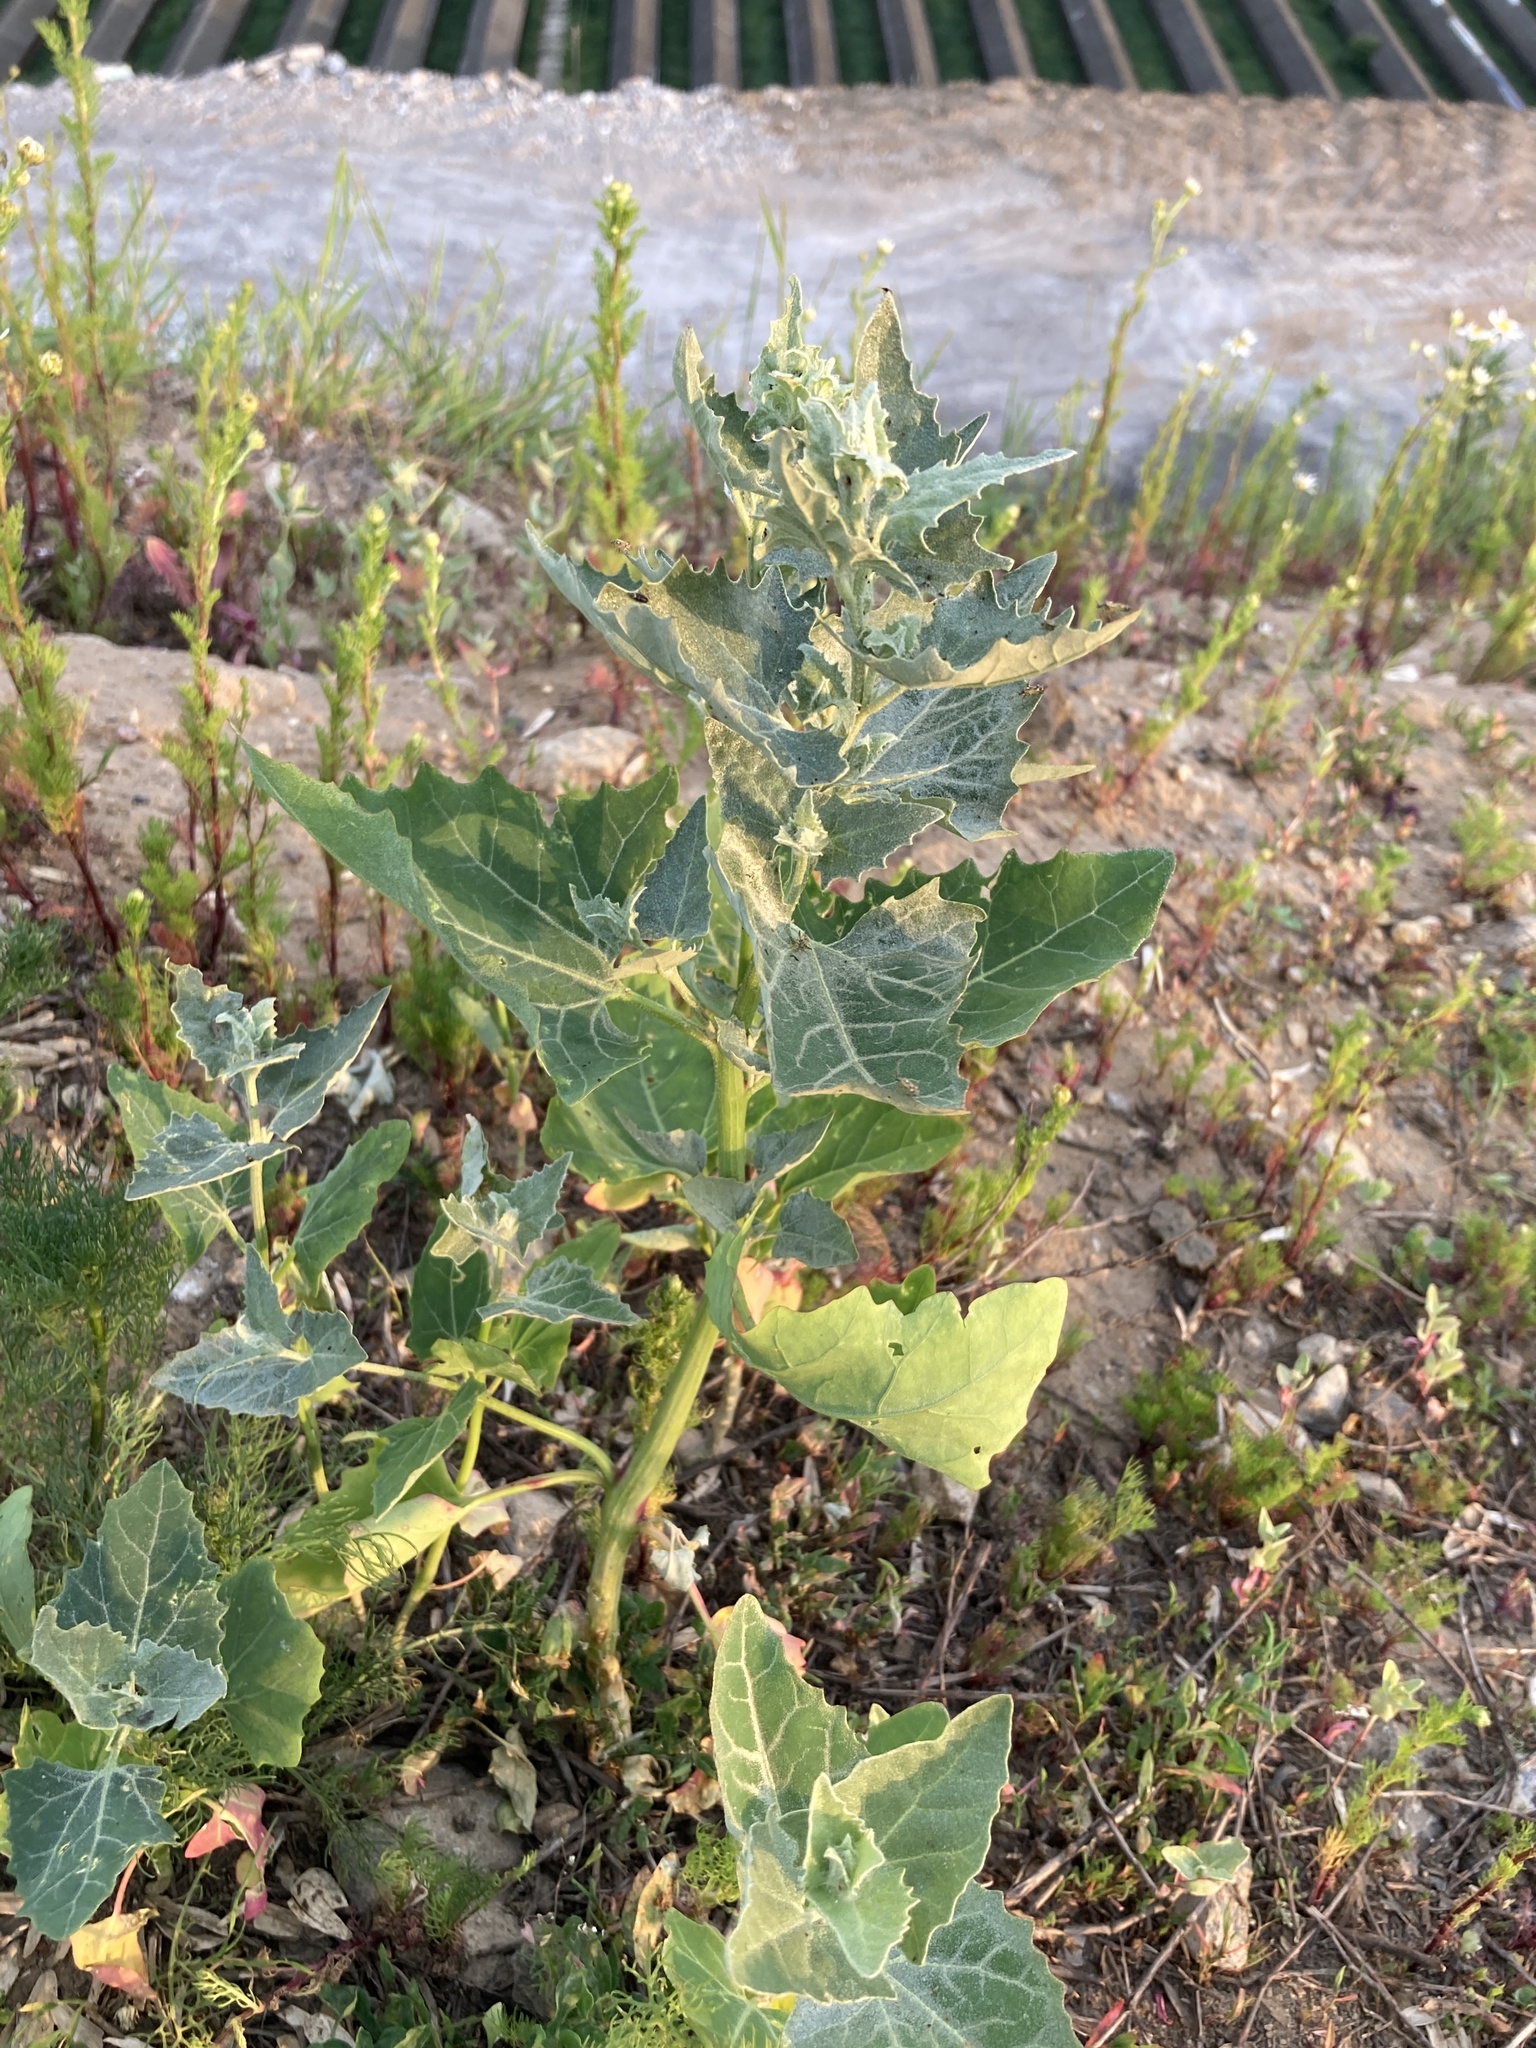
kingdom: Plantae
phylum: Tracheophyta
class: Magnoliopsida
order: Caryophyllales
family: Amaranthaceae
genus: Atriplex
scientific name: Atriplex sagittata
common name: Purple orache
